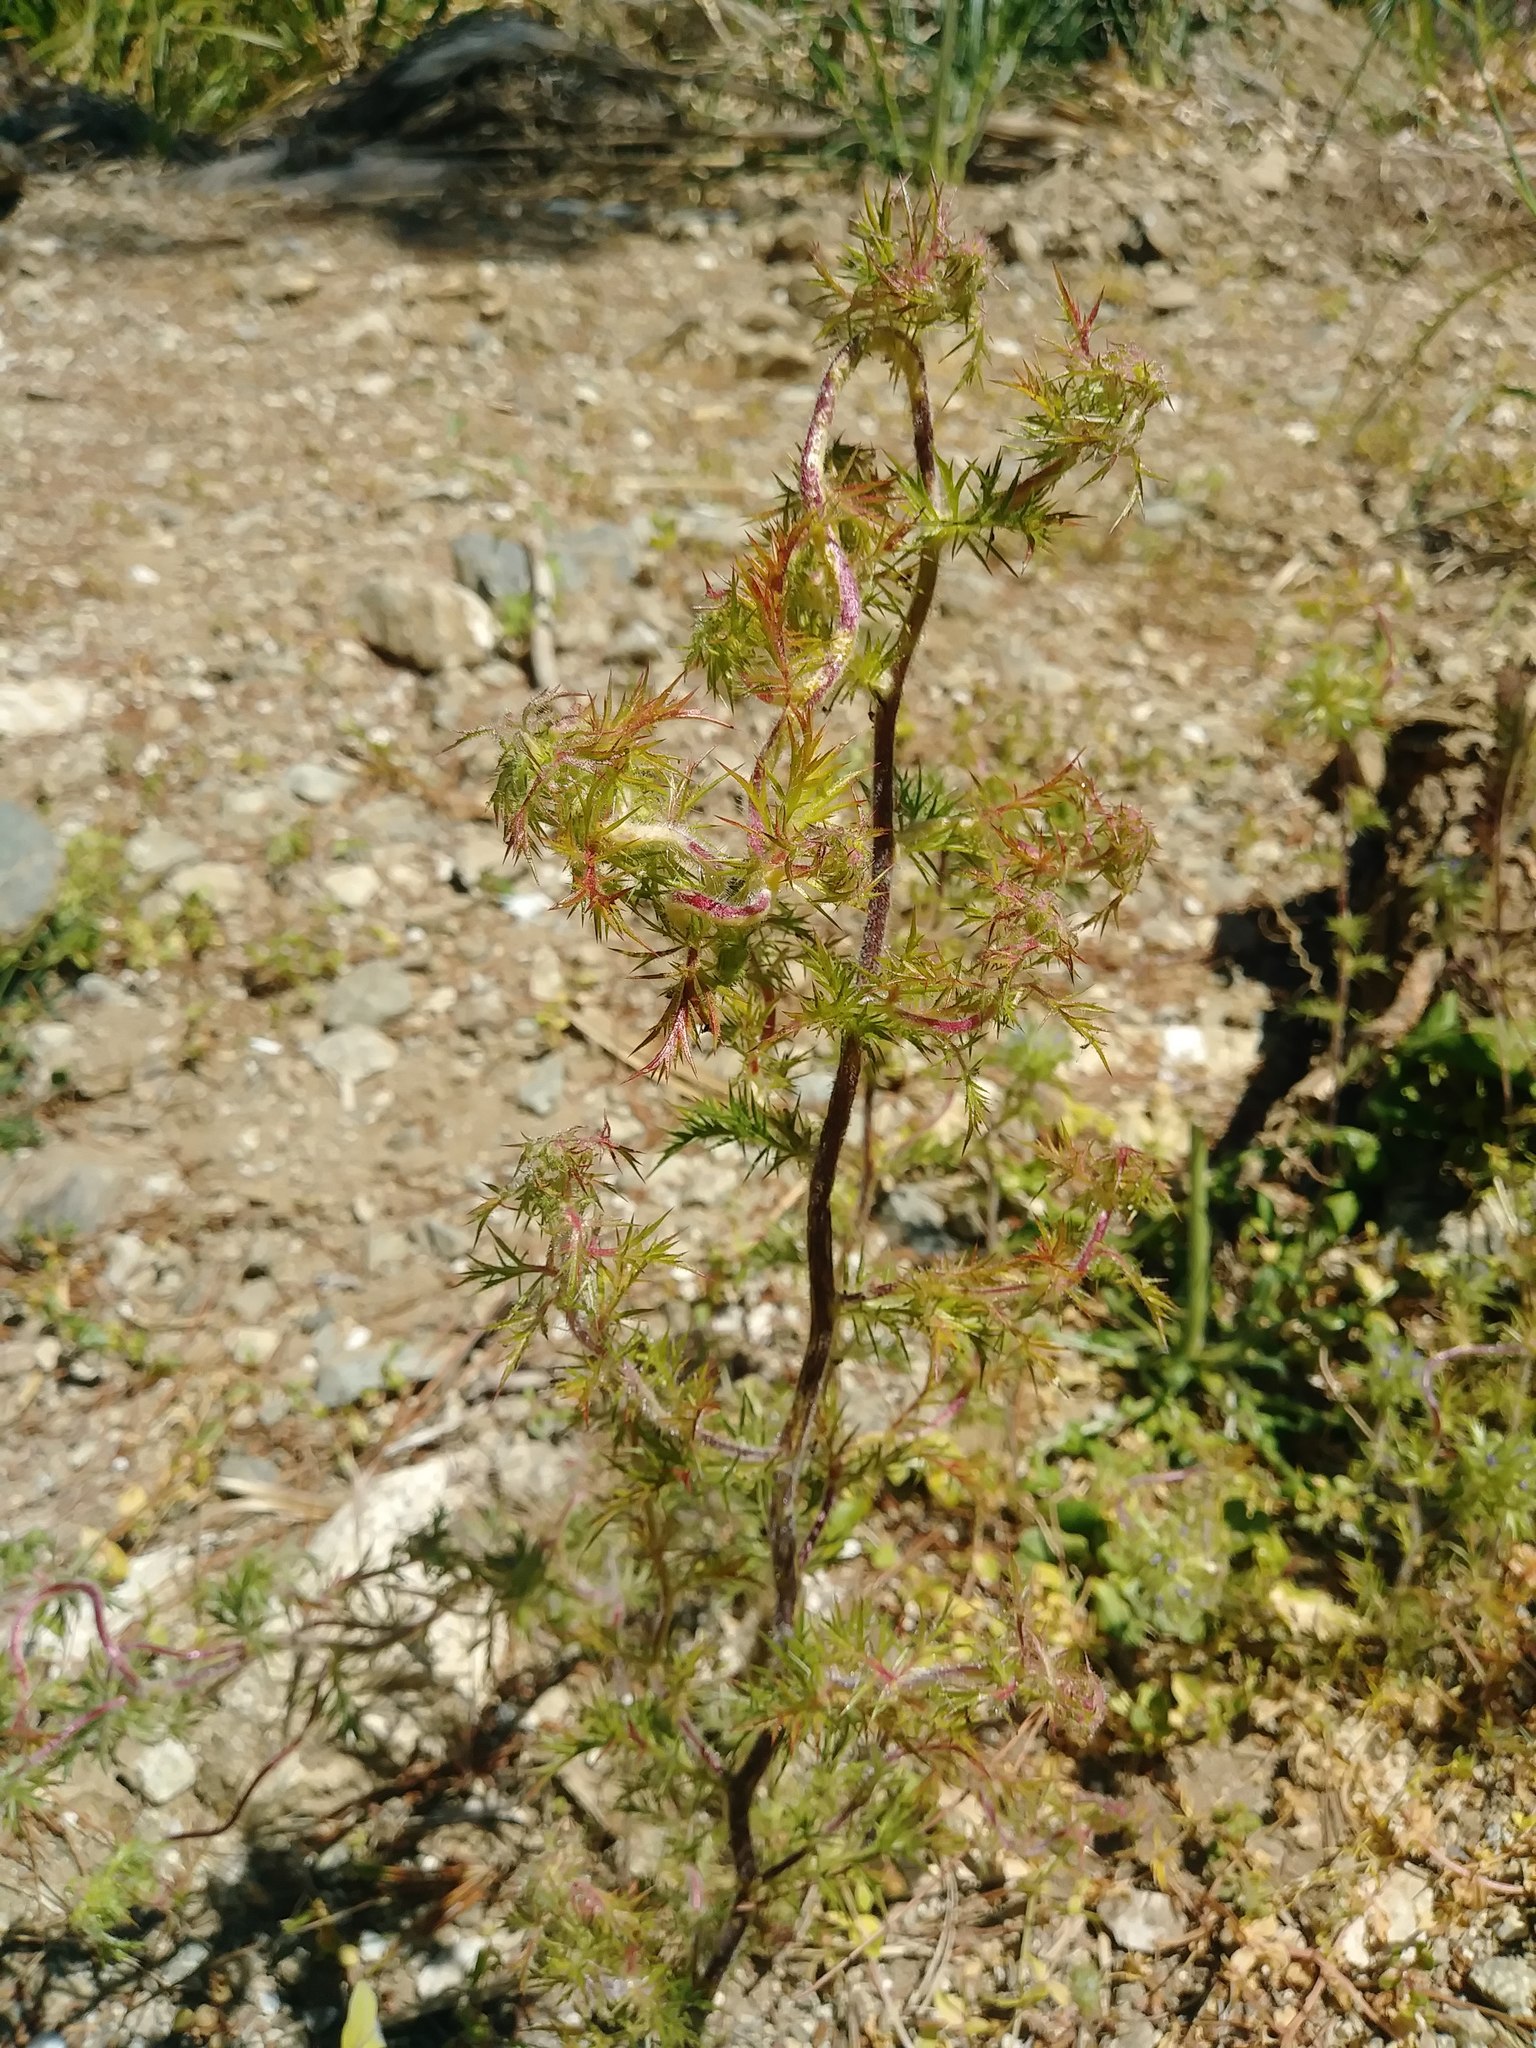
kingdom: Plantae
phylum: Tracheophyta
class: Magnoliopsida
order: Ericales
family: Polemoniaceae
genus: Navarretia
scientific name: Navarretia squarrosa
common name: Skunkweed
